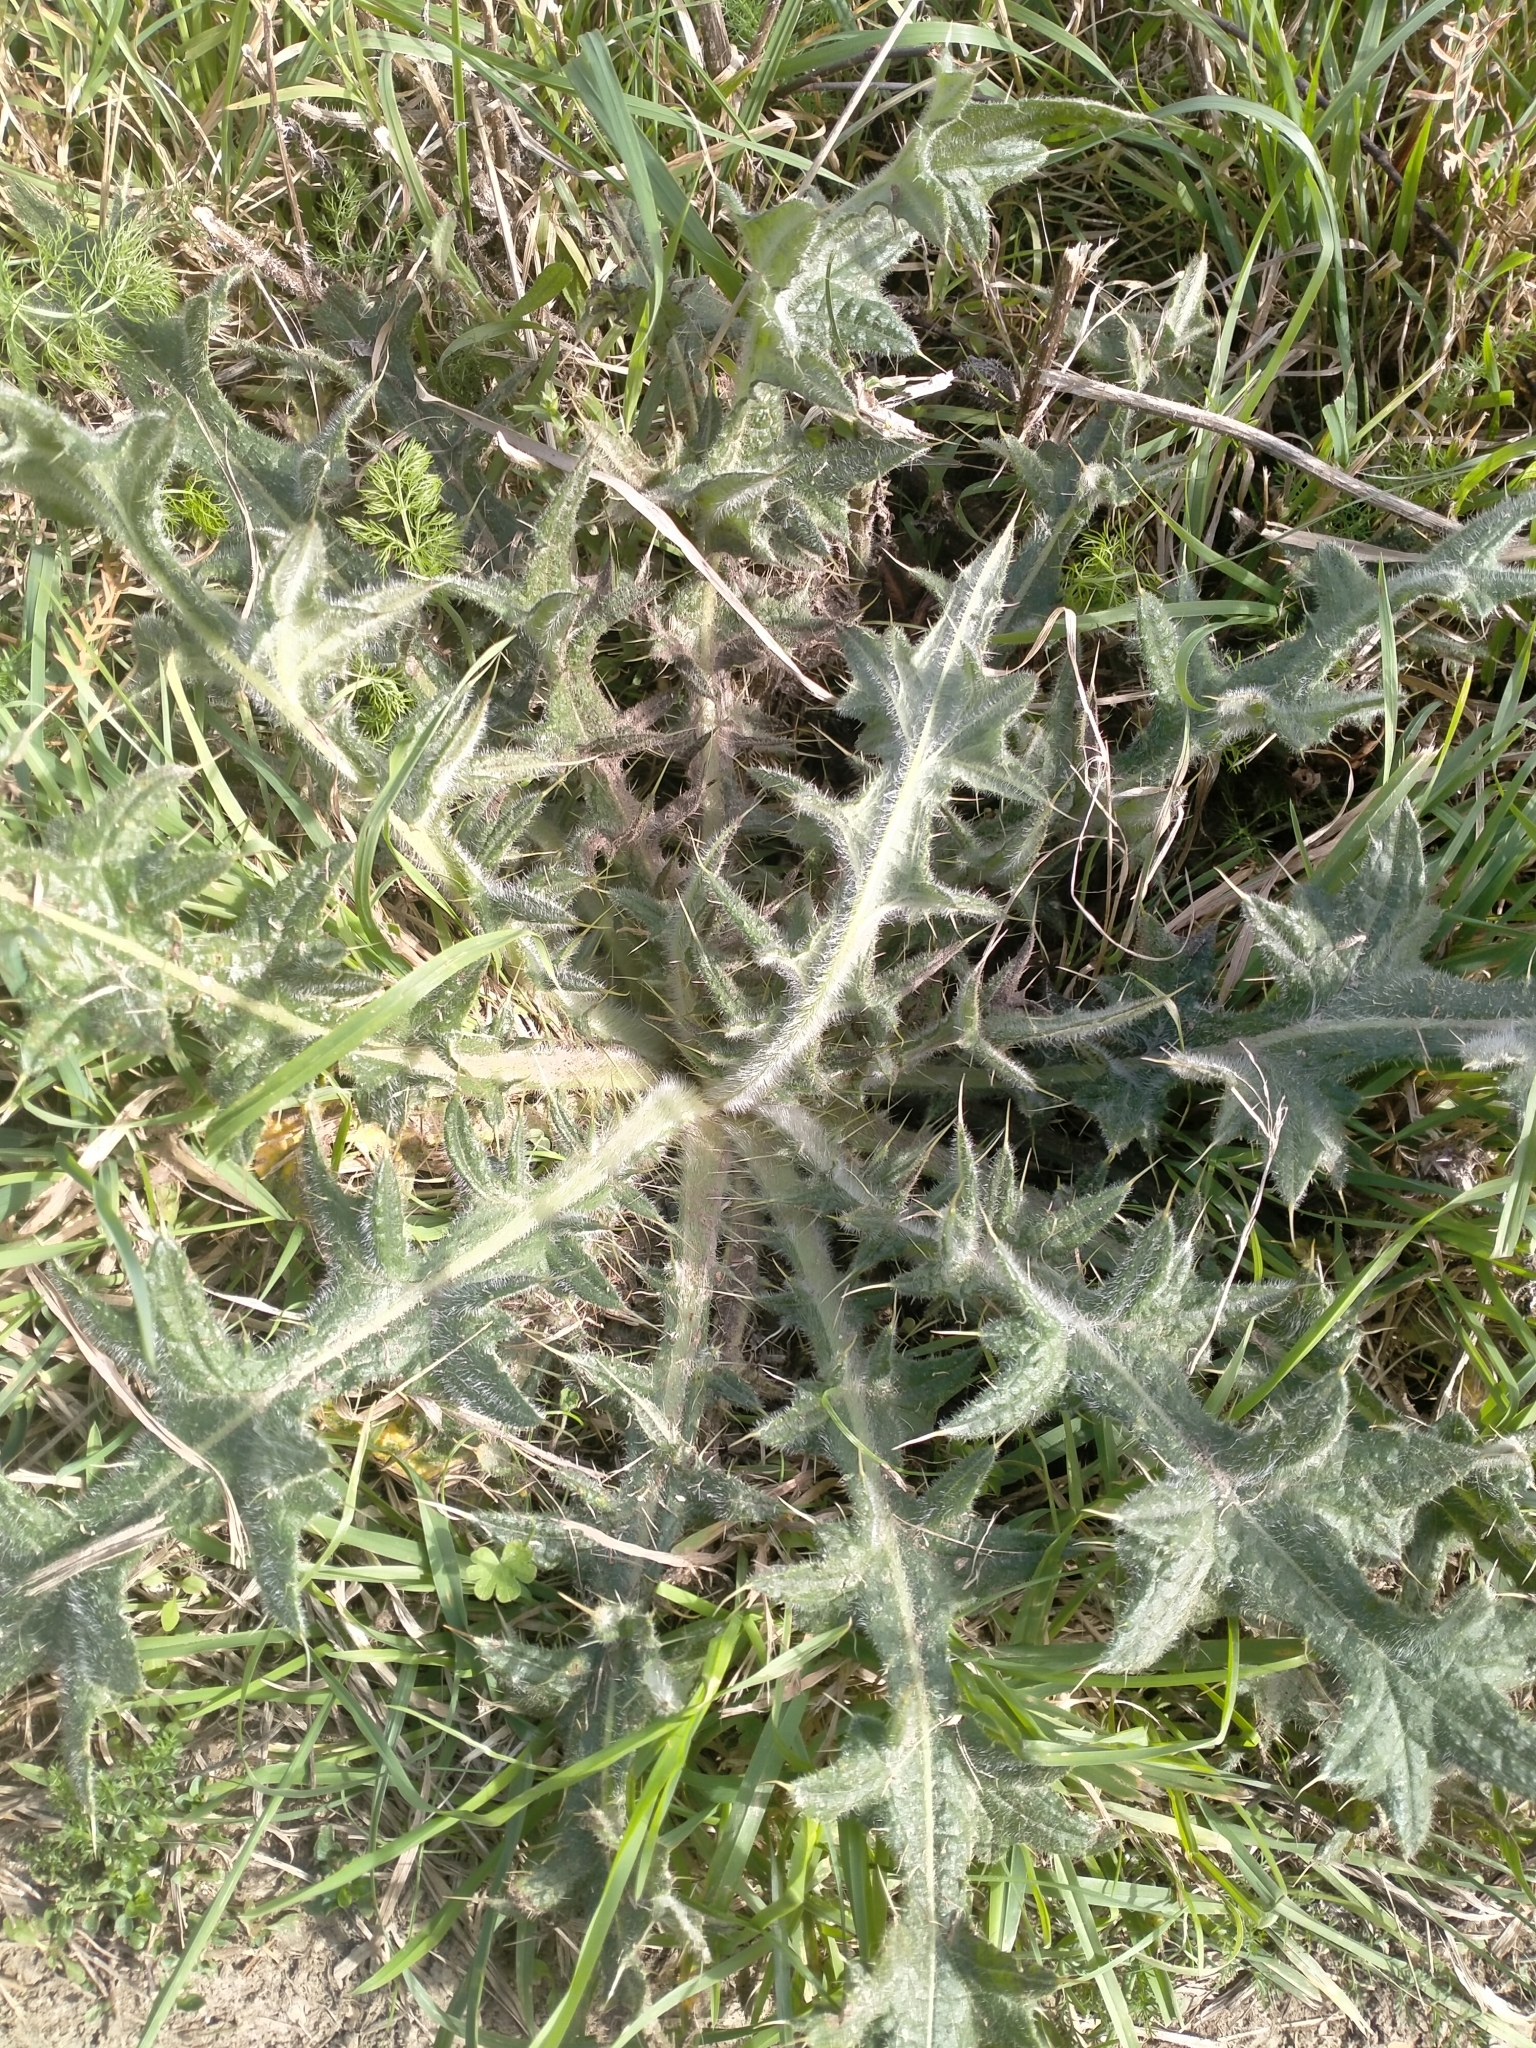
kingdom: Plantae
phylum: Tracheophyta
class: Magnoliopsida
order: Asterales
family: Asteraceae
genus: Cirsium
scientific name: Cirsium vulgare
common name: Bull thistle
